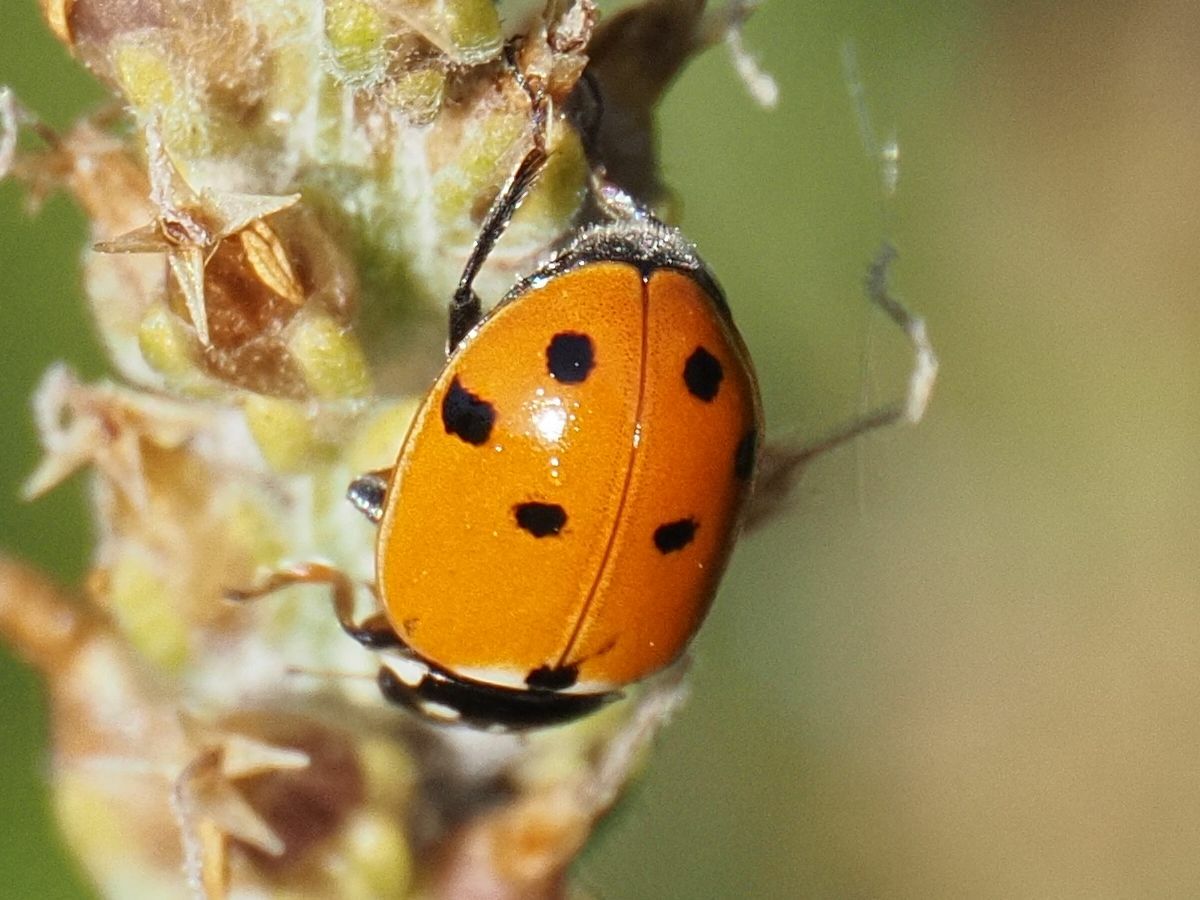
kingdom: Animalia
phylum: Arthropoda
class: Insecta
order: Coleoptera
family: Coccinellidae
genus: Hippodamia
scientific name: Hippodamia variegata
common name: Ladybird beetle
